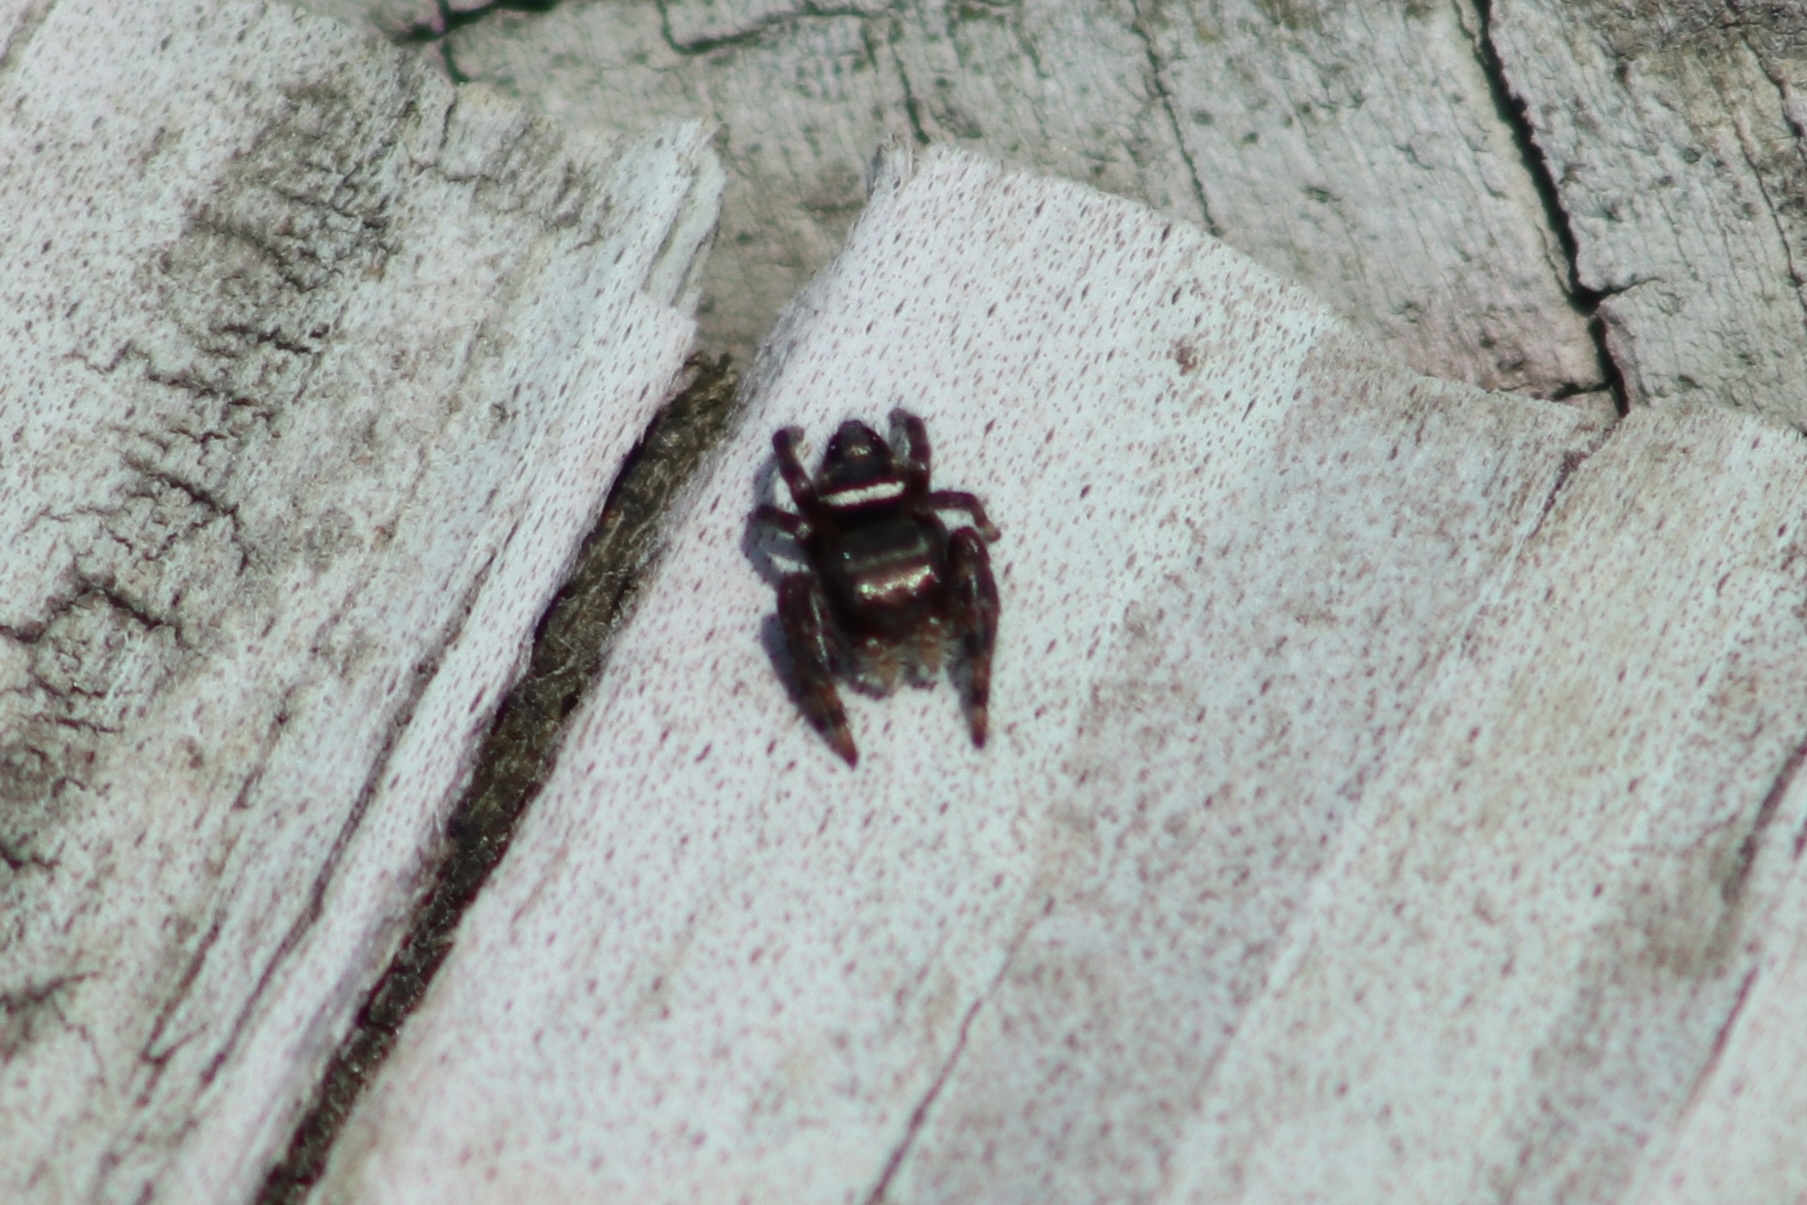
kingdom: Animalia
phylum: Arthropoda
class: Arachnida
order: Araneae
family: Salticidae
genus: Phidippus
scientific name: Phidippus clarus
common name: Brilliant jumping spider
